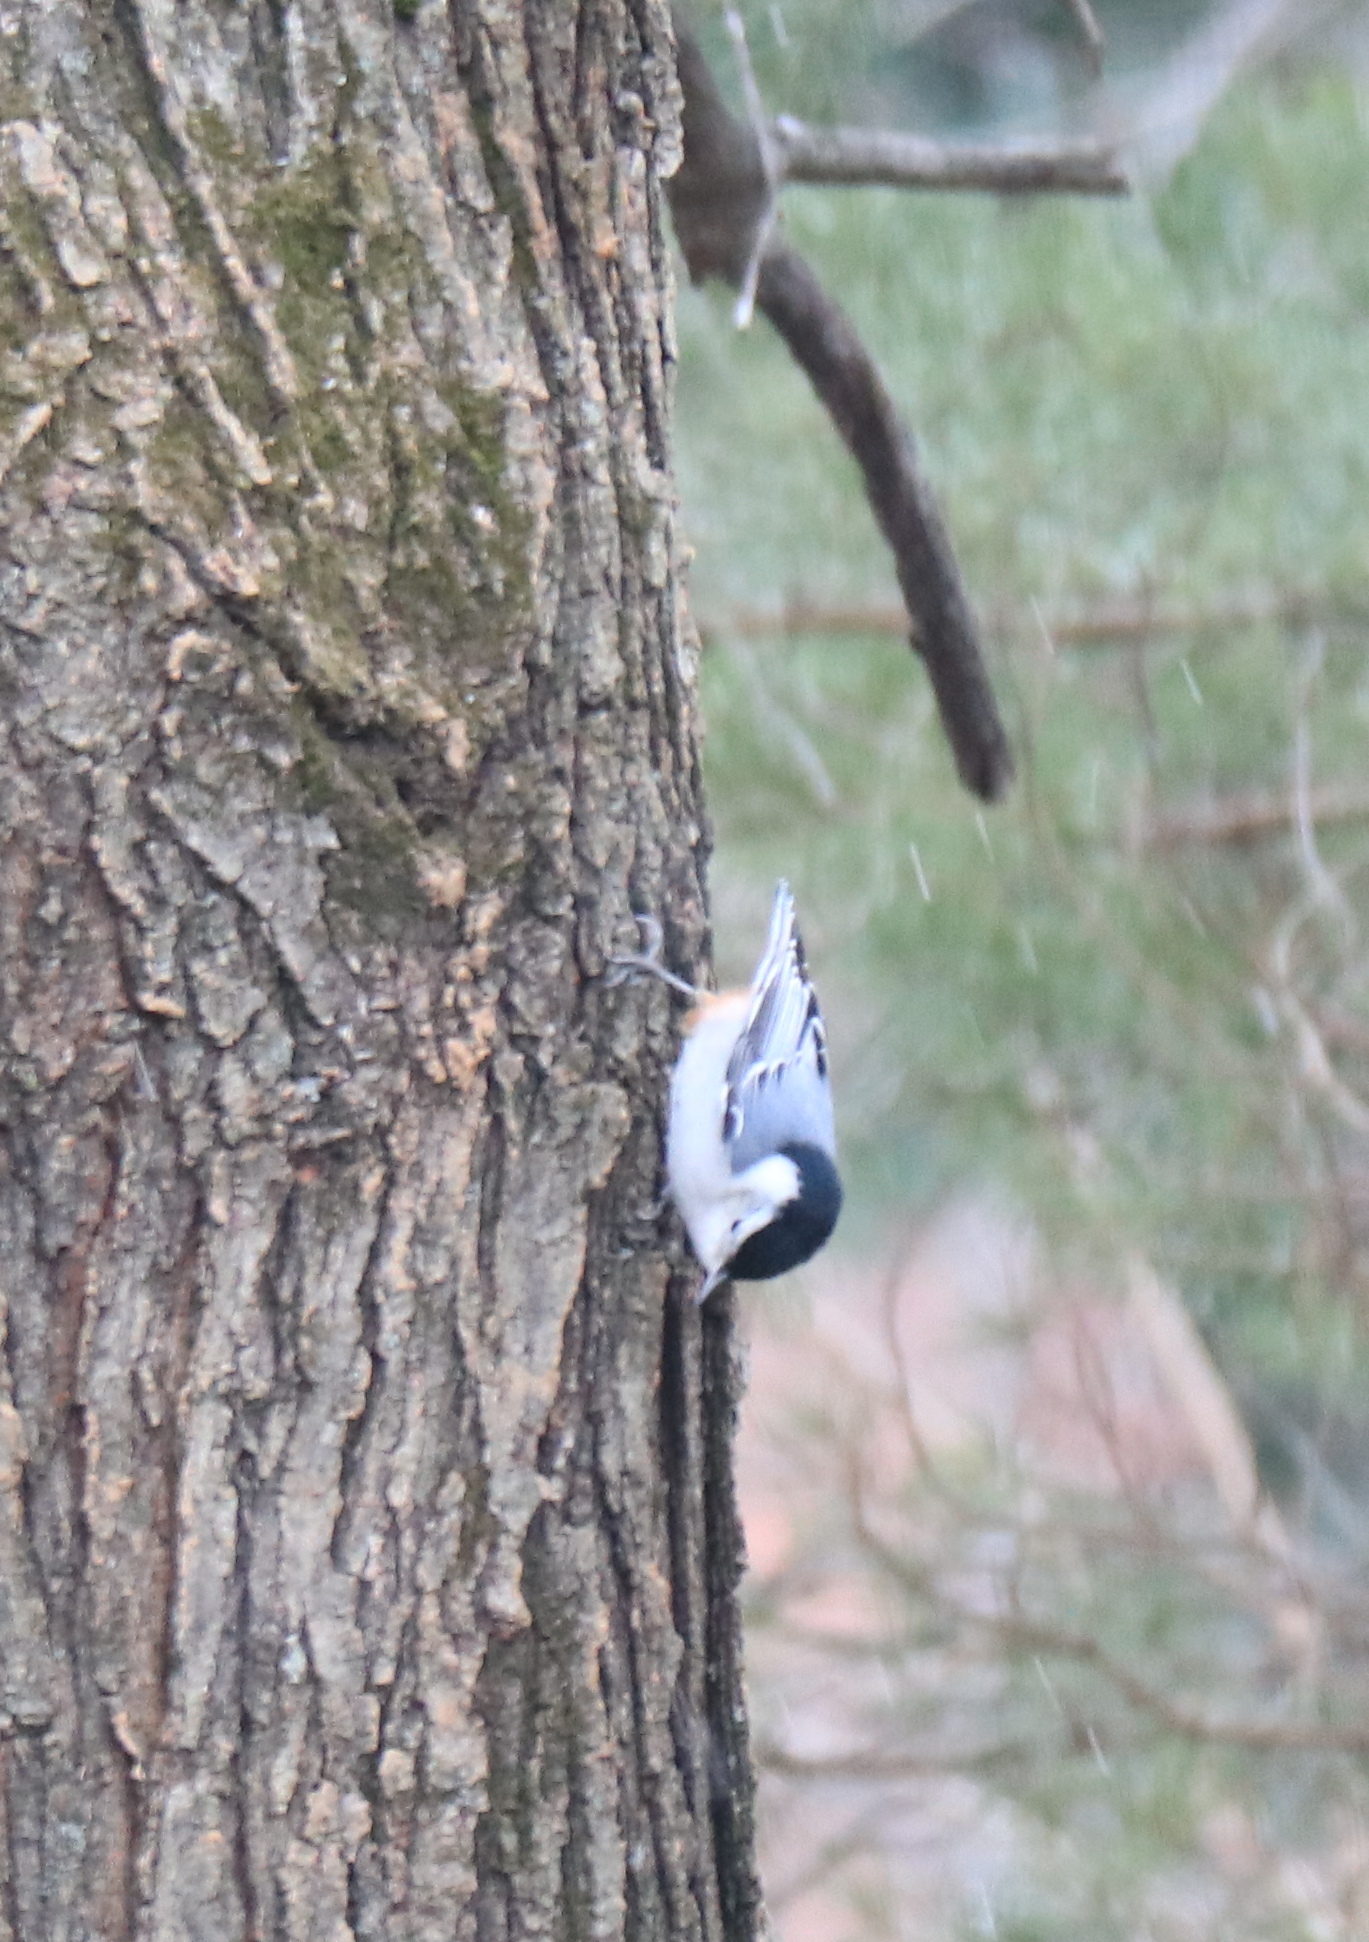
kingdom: Animalia
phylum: Chordata
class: Aves
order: Passeriformes
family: Sittidae
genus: Sitta
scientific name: Sitta carolinensis
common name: White-breasted nuthatch
